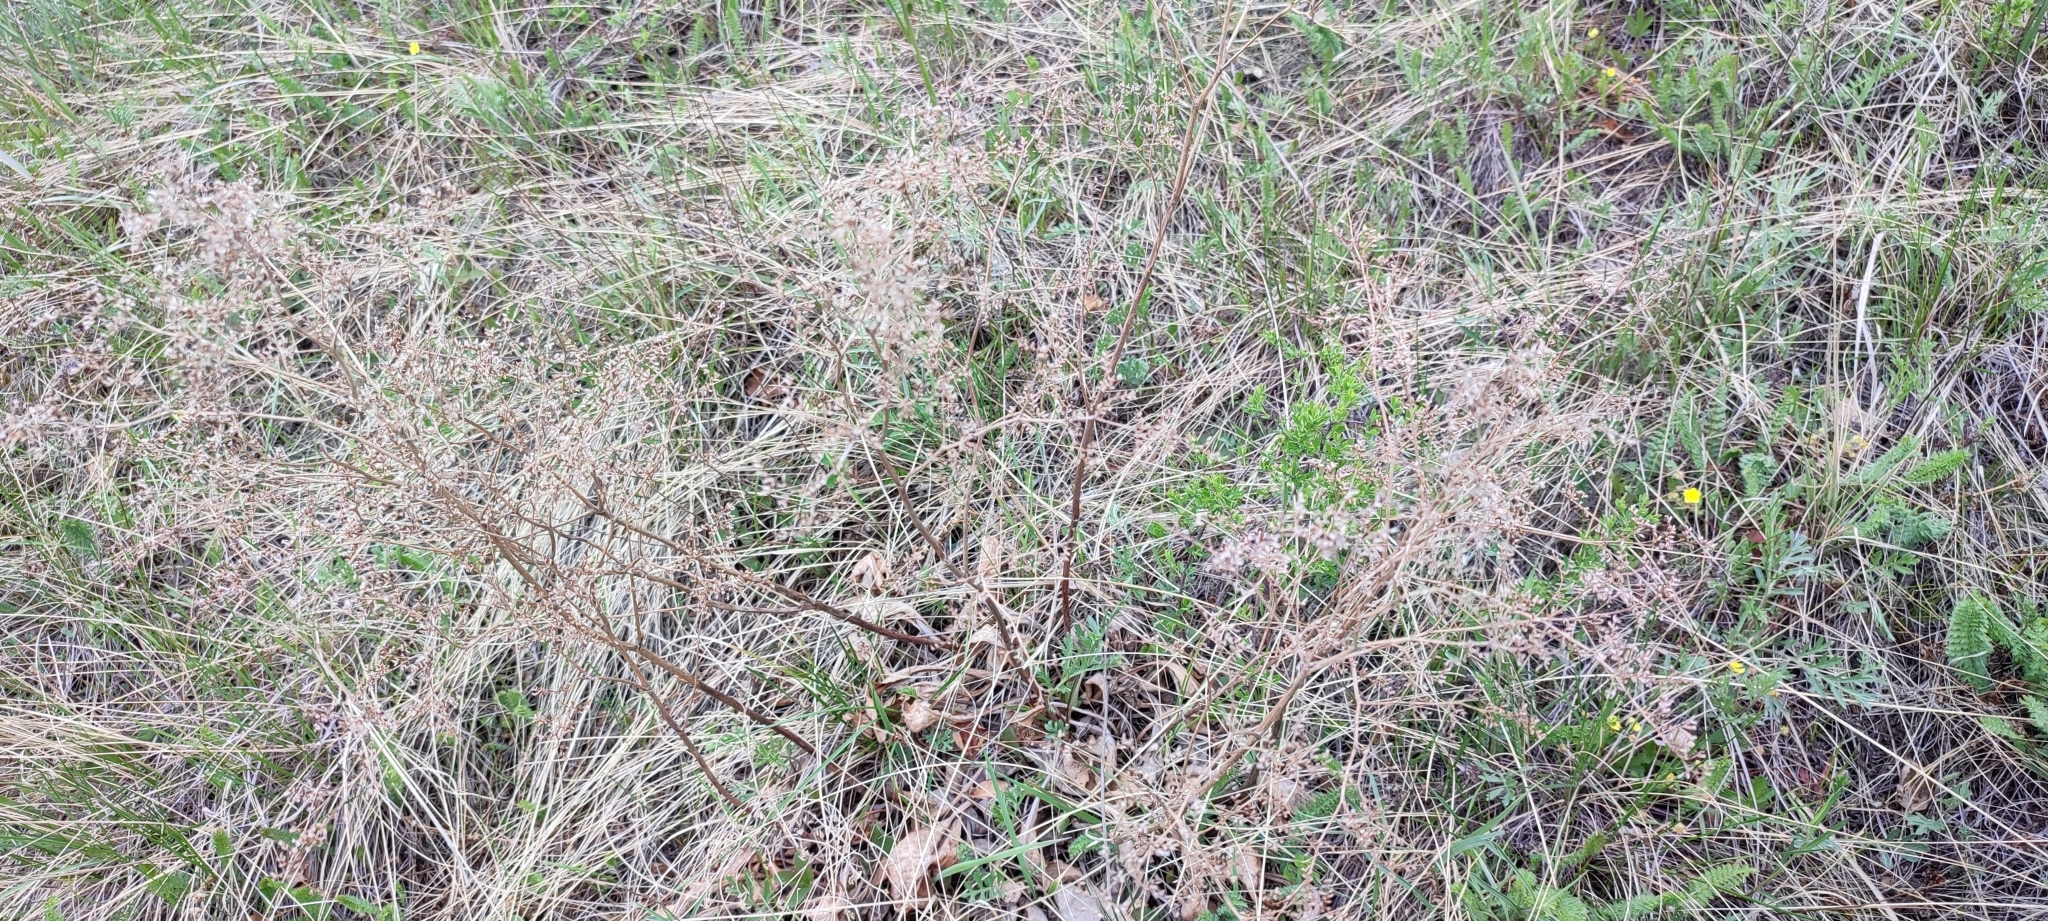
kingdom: Plantae
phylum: Tracheophyta
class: Magnoliopsida
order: Caryophyllales
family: Plumbaginaceae
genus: Limonium
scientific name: Limonium gmelini
